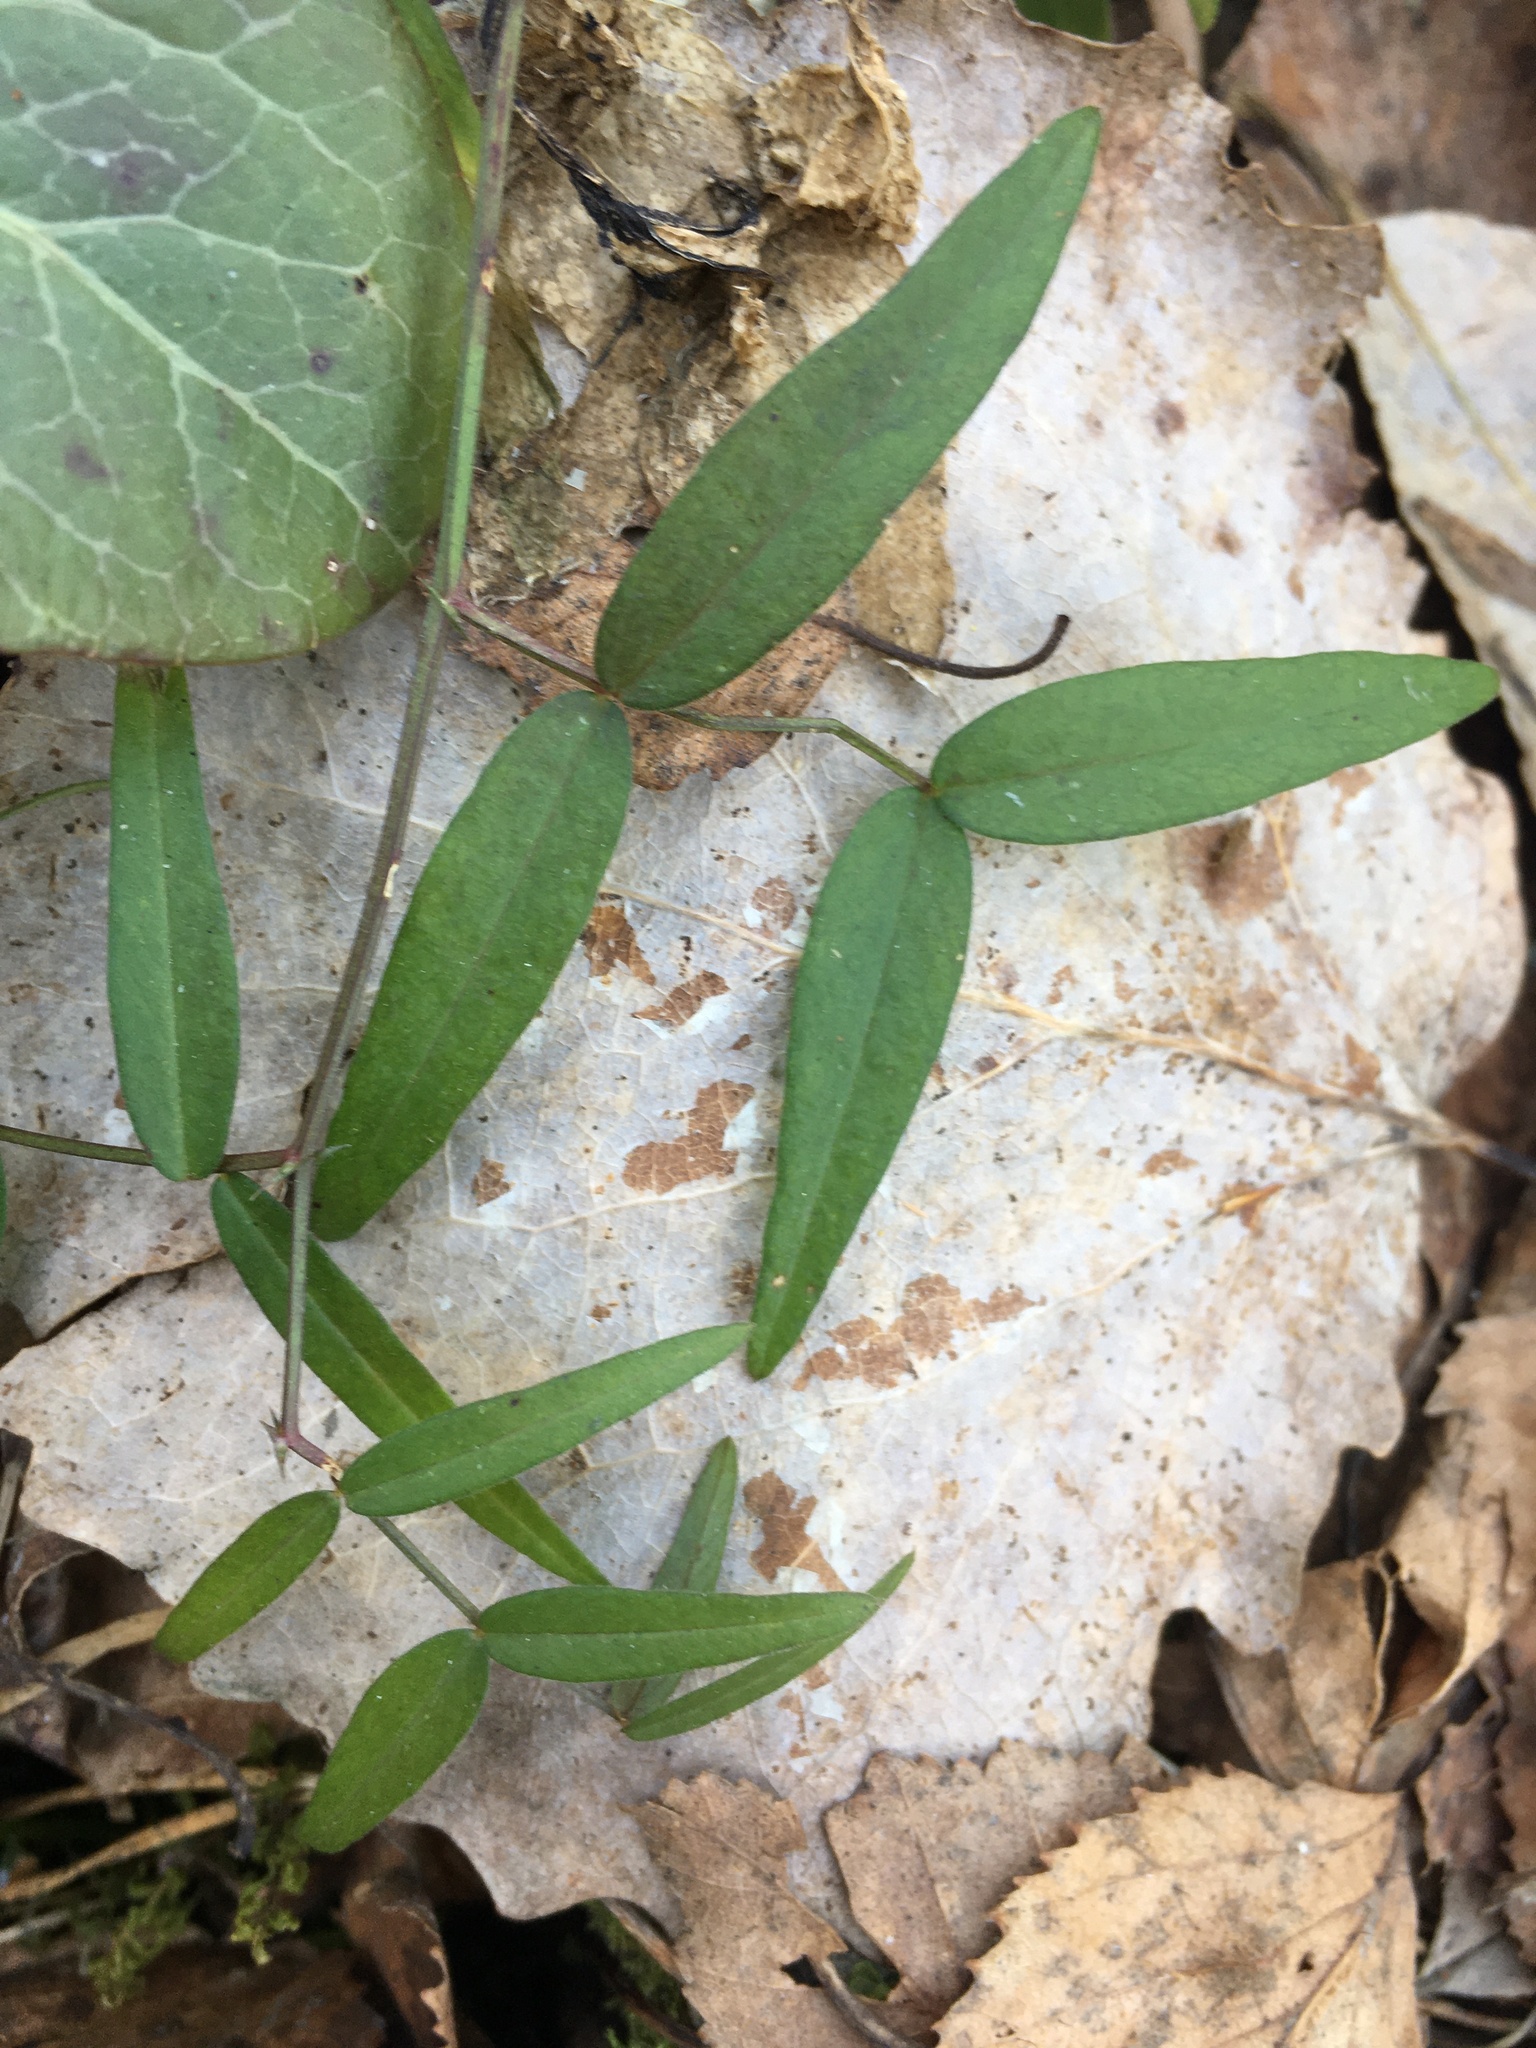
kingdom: Plantae
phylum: Tracheophyta
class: Magnoliopsida
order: Fabales
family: Fabaceae
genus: Vicia
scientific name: Vicia sepium
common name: Bush vetch
